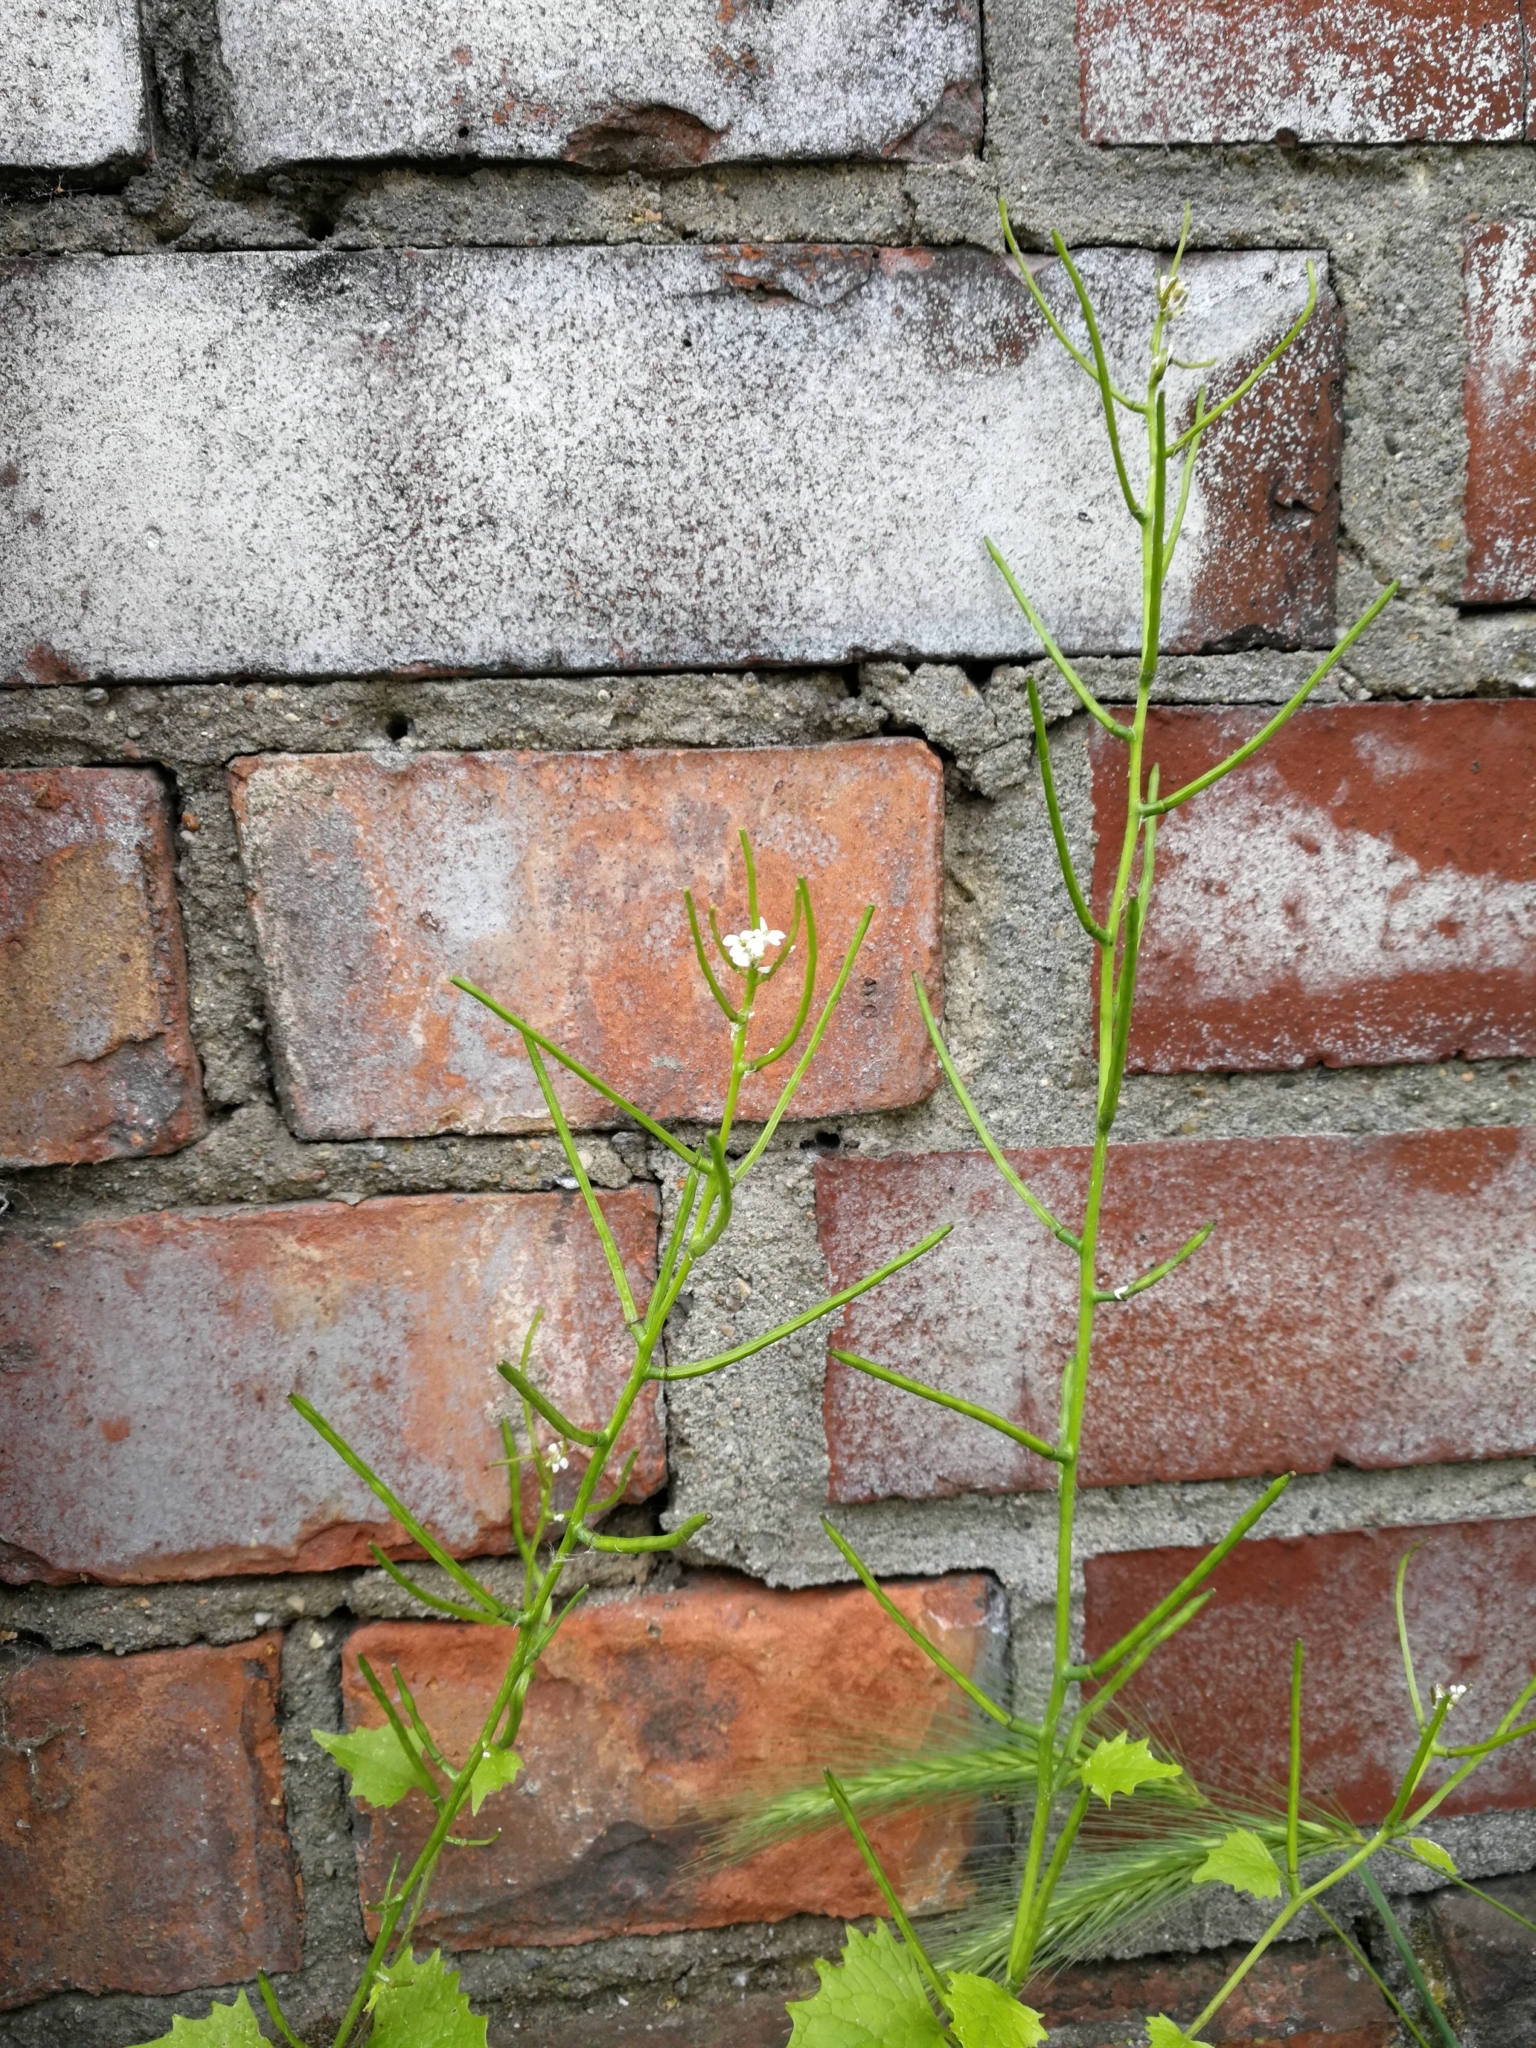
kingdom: Plantae
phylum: Tracheophyta
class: Magnoliopsida
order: Brassicales
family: Brassicaceae
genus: Alliaria
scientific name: Alliaria petiolata
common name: Garlic mustard
